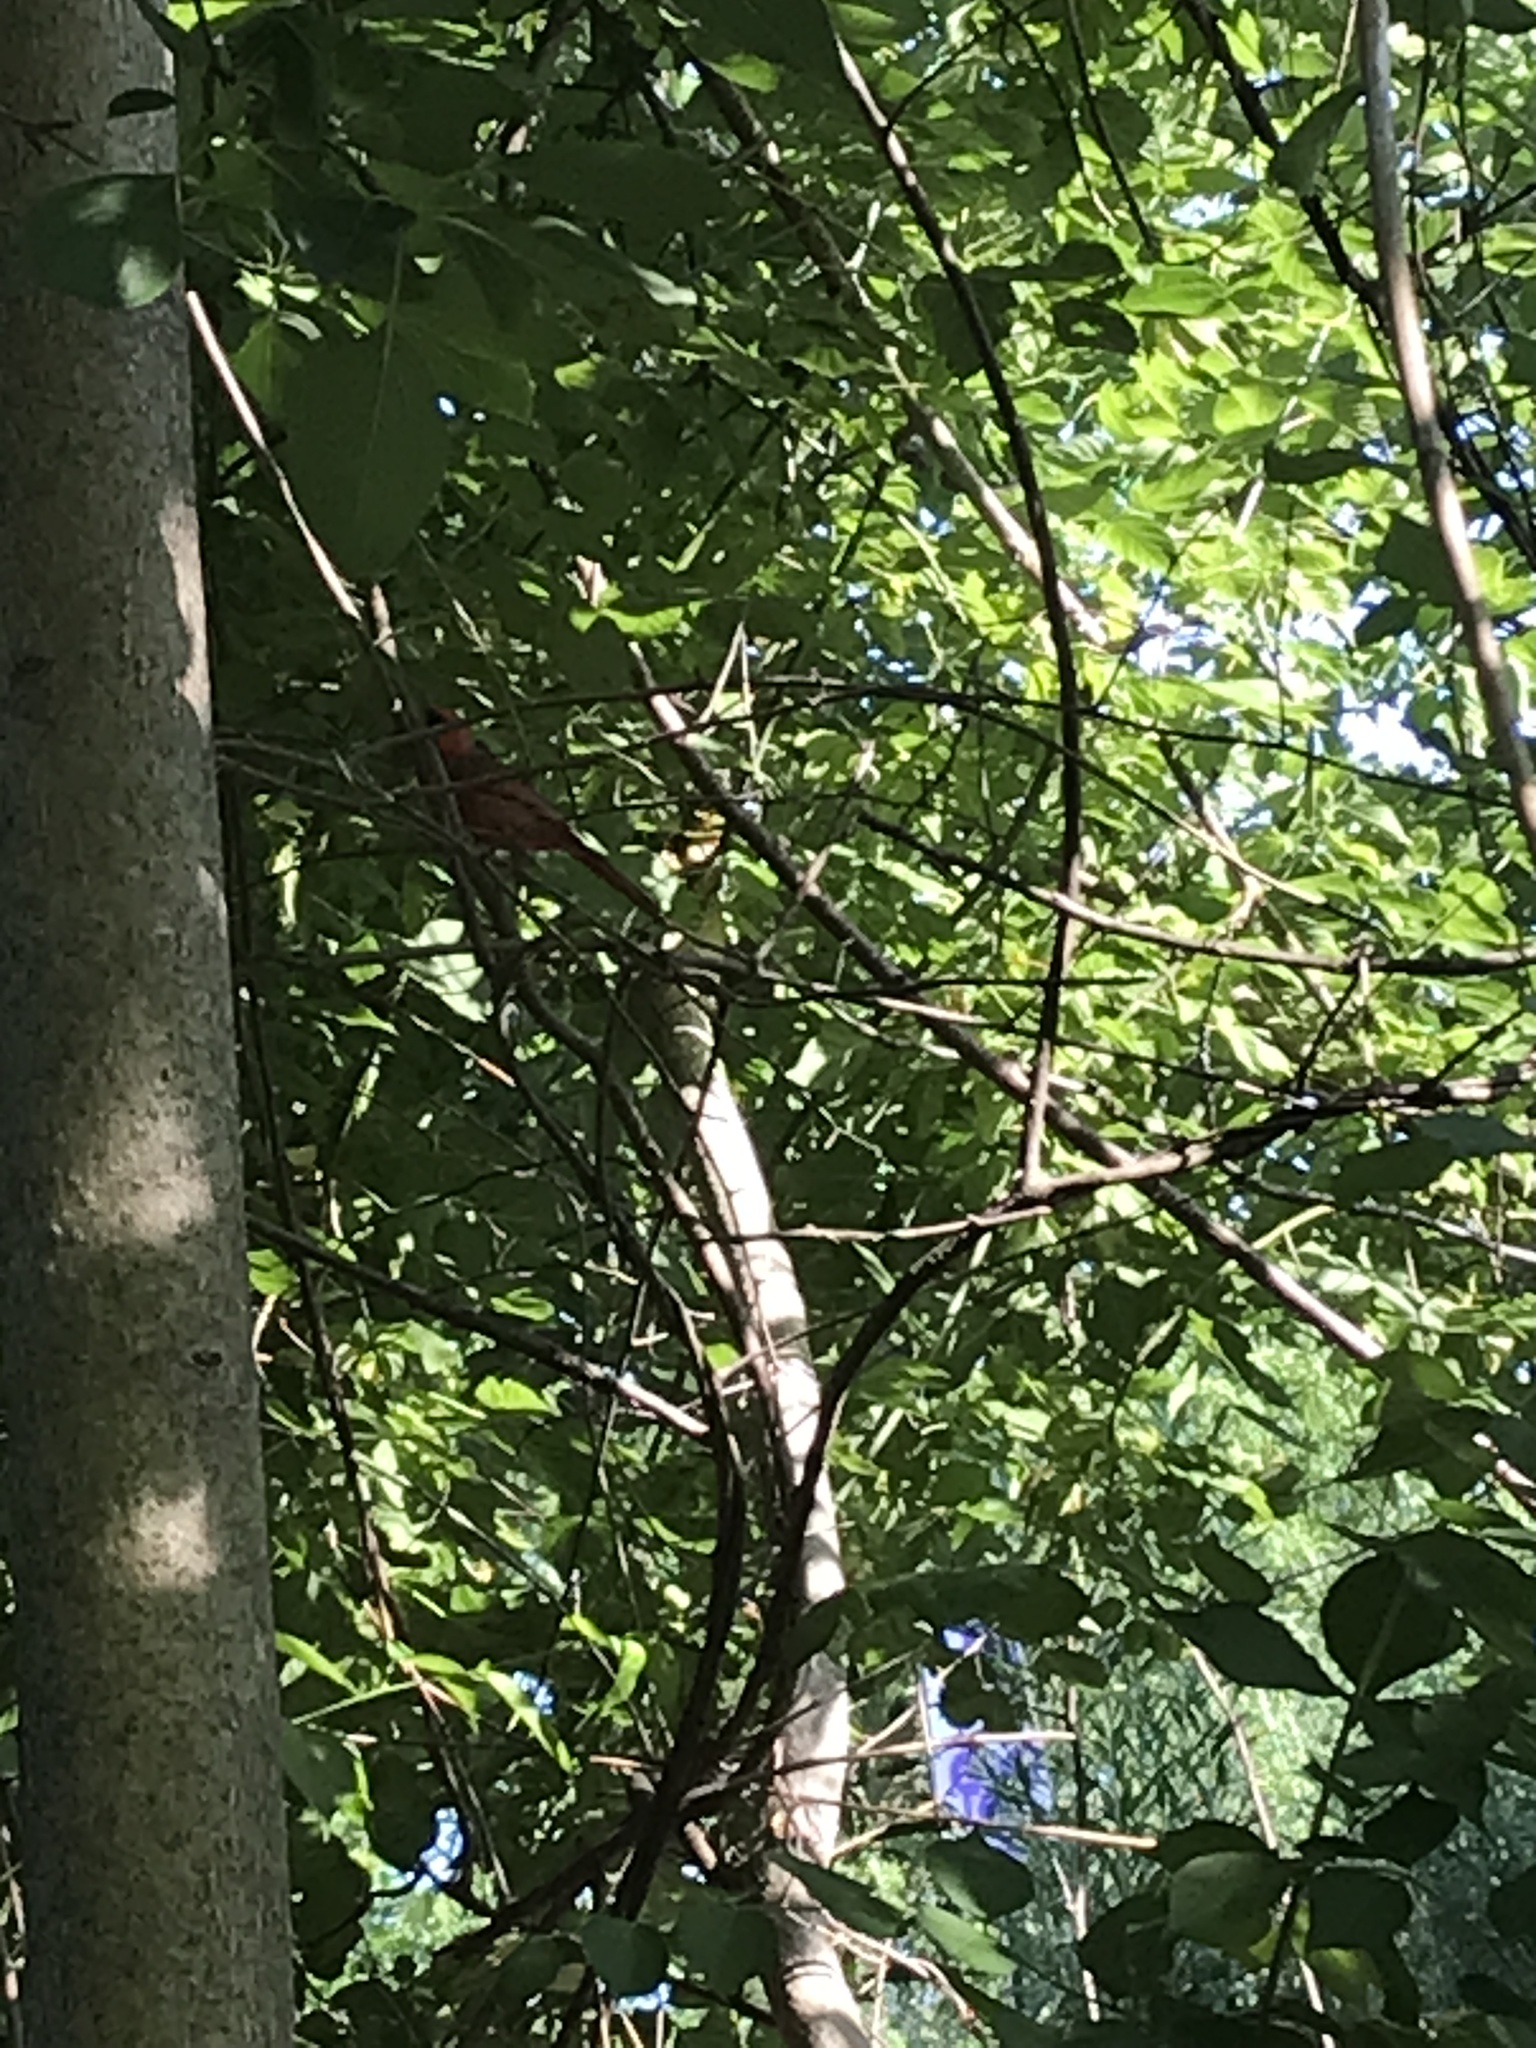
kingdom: Animalia
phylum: Chordata
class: Aves
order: Passeriformes
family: Cardinalidae
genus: Cardinalis
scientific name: Cardinalis cardinalis
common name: Northern cardinal
